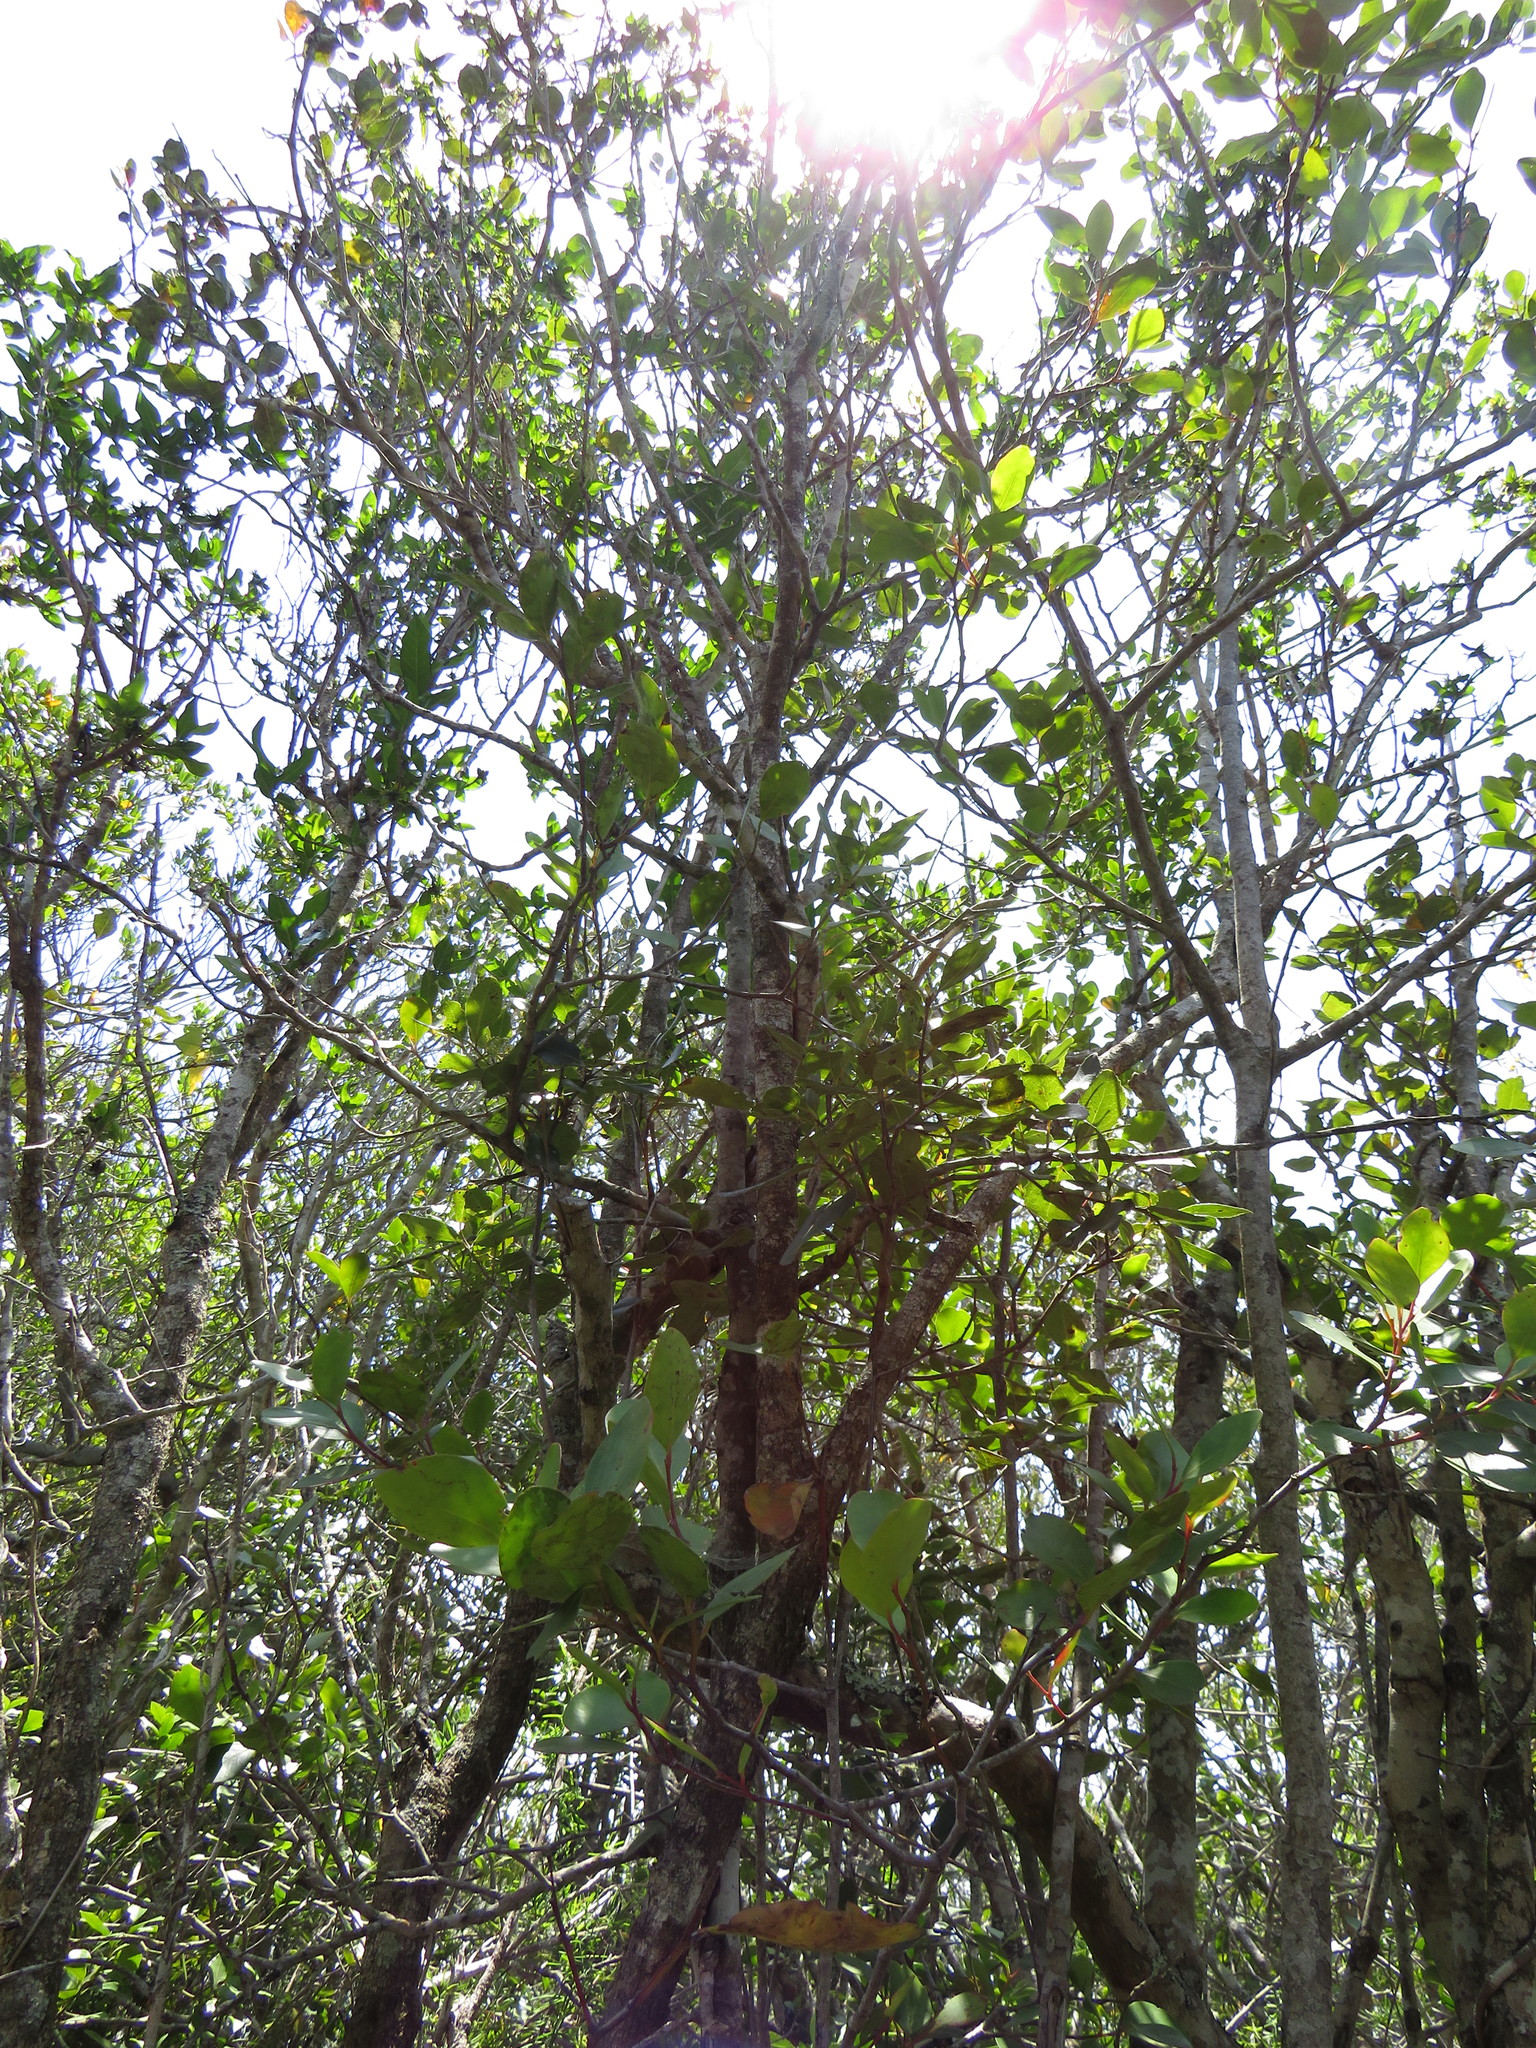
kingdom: Plantae
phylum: Tracheophyta
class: Magnoliopsida
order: Gentianales
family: Rubiaceae
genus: Burchellia
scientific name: Burchellia bubalina
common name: Wild pomegranate
